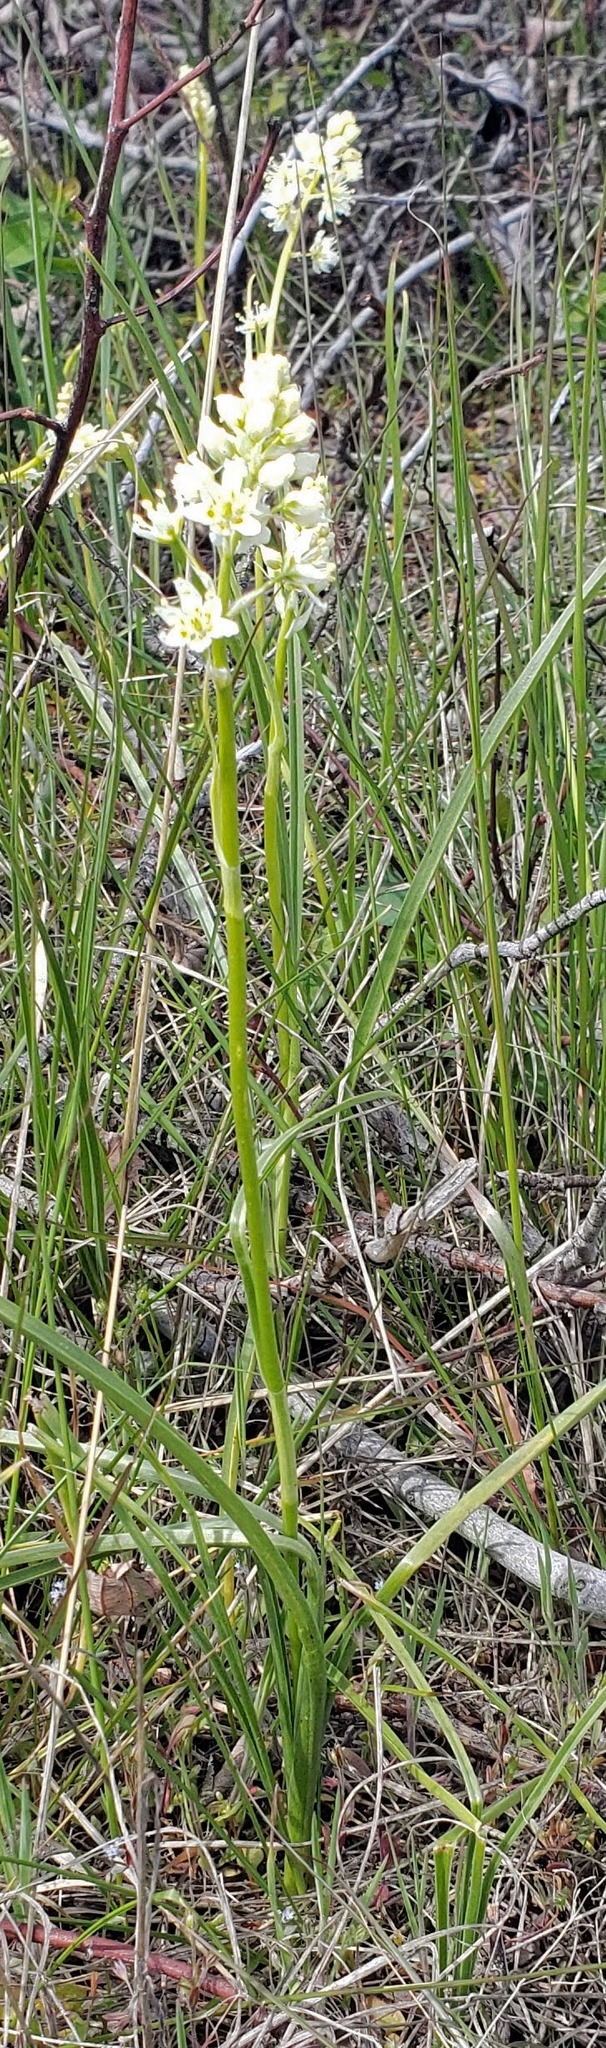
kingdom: Plantae
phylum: Tracheophyta
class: Liliopsida
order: Liliales
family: Melanthiaceae
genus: Toxicoscordion
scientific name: Toxicoscordion venenosum
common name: Meadow death camas
